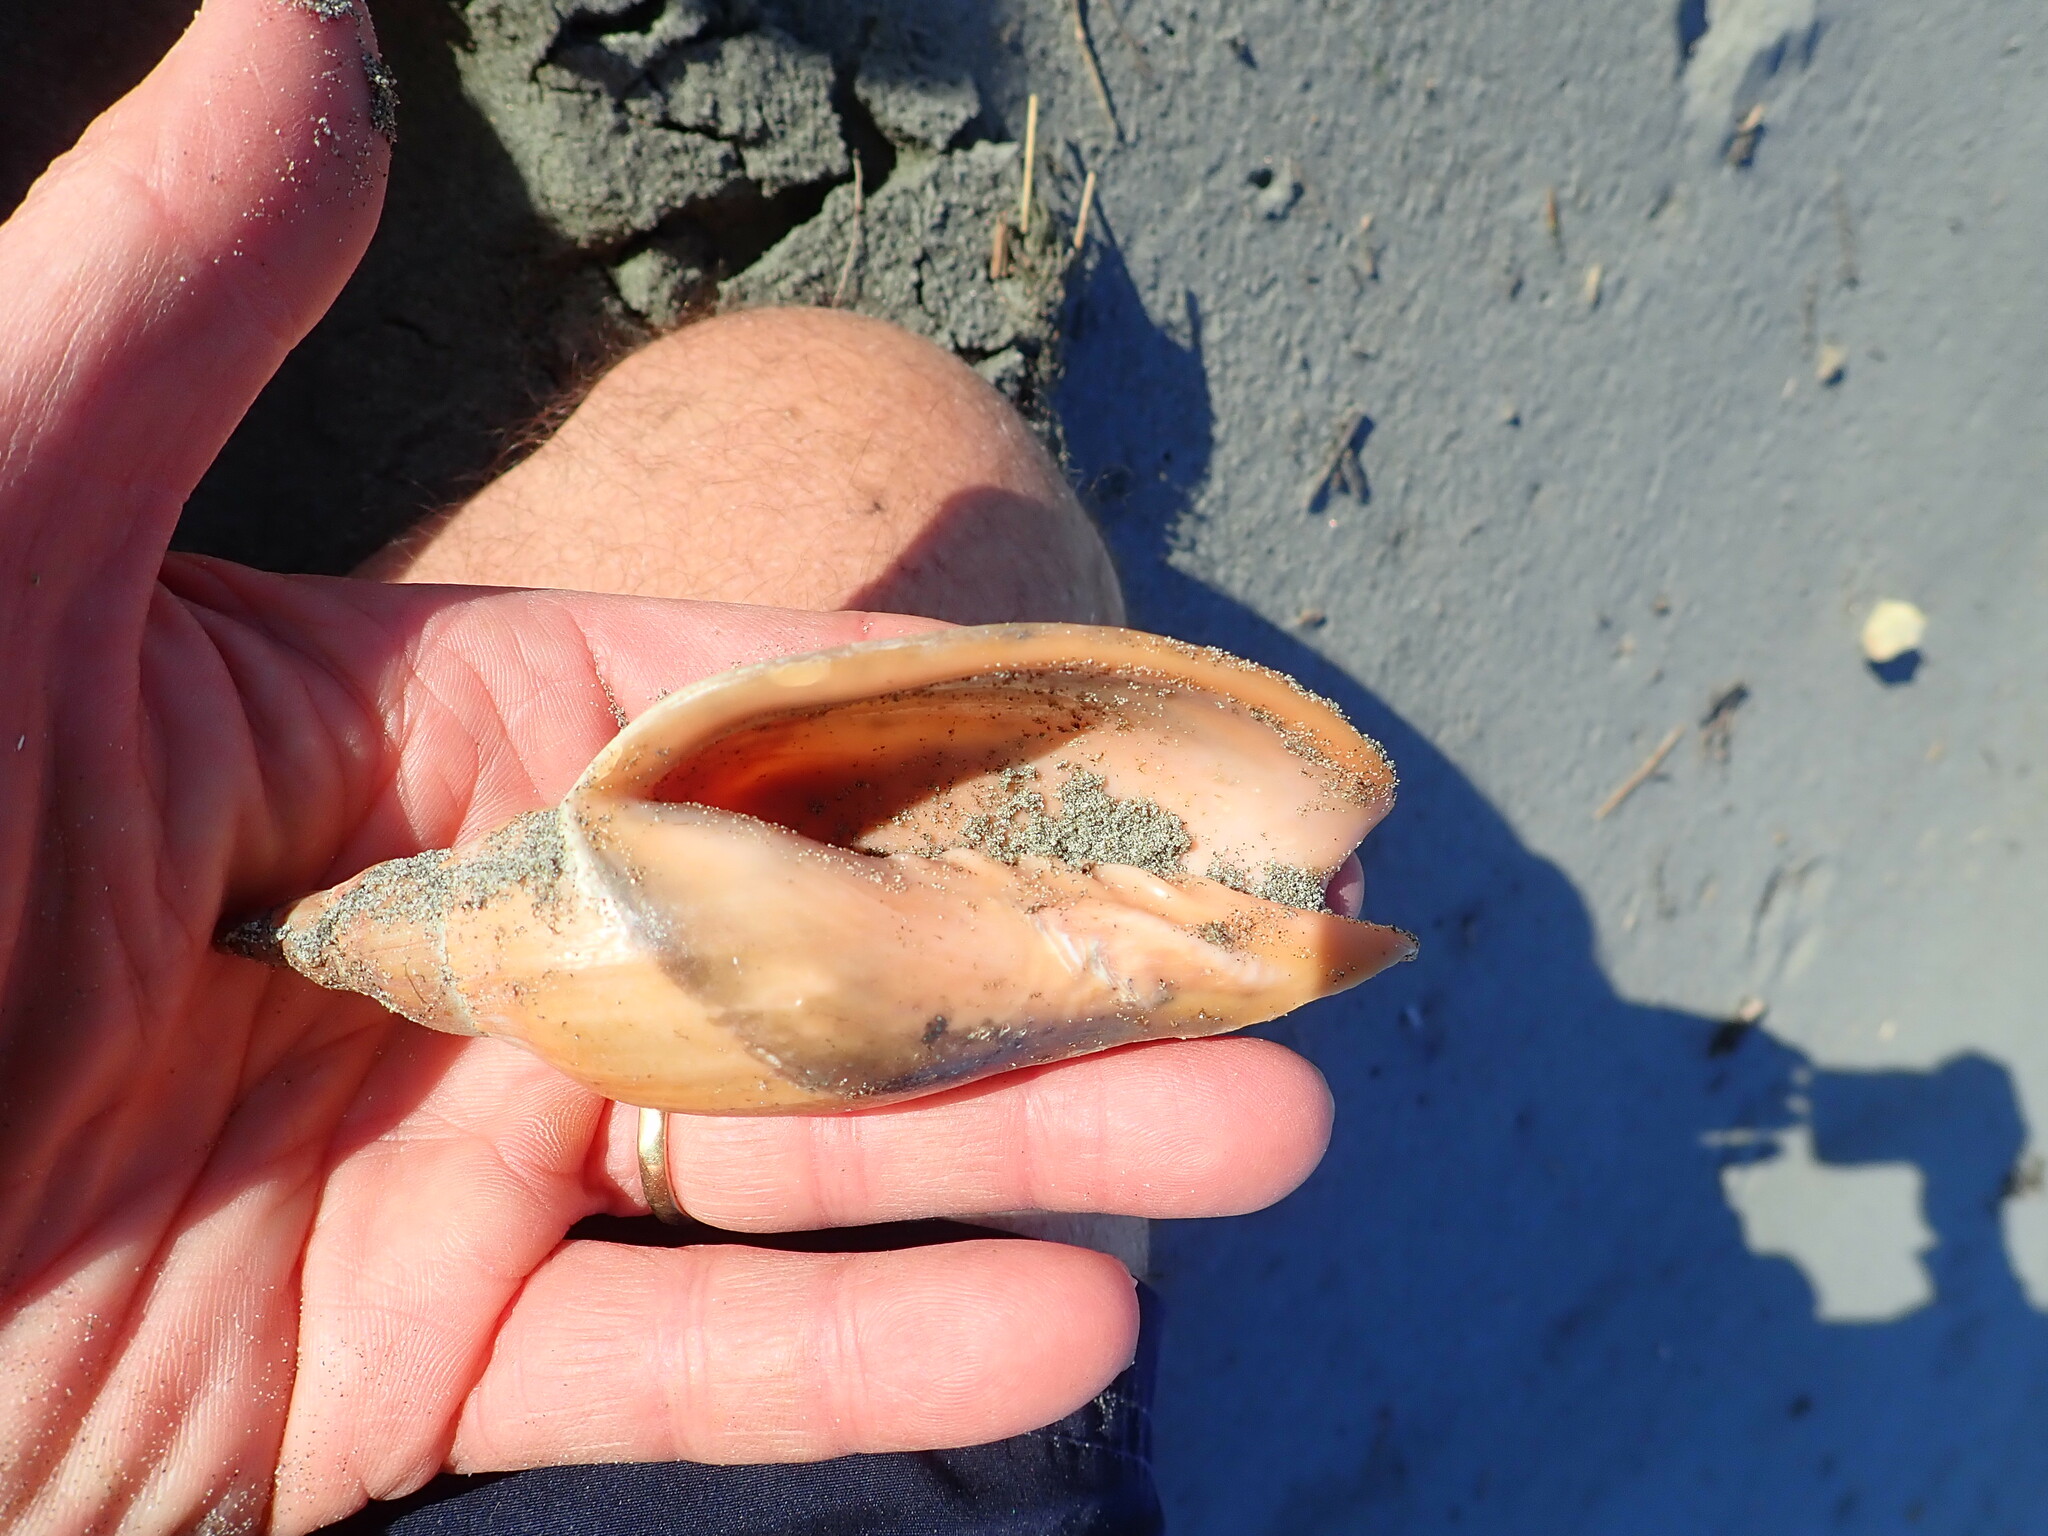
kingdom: Animalia
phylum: Mollusca
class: Gastropoda
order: Neogastropoda
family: Volutidae
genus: Alcithoe
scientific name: Alcithoe arabica
